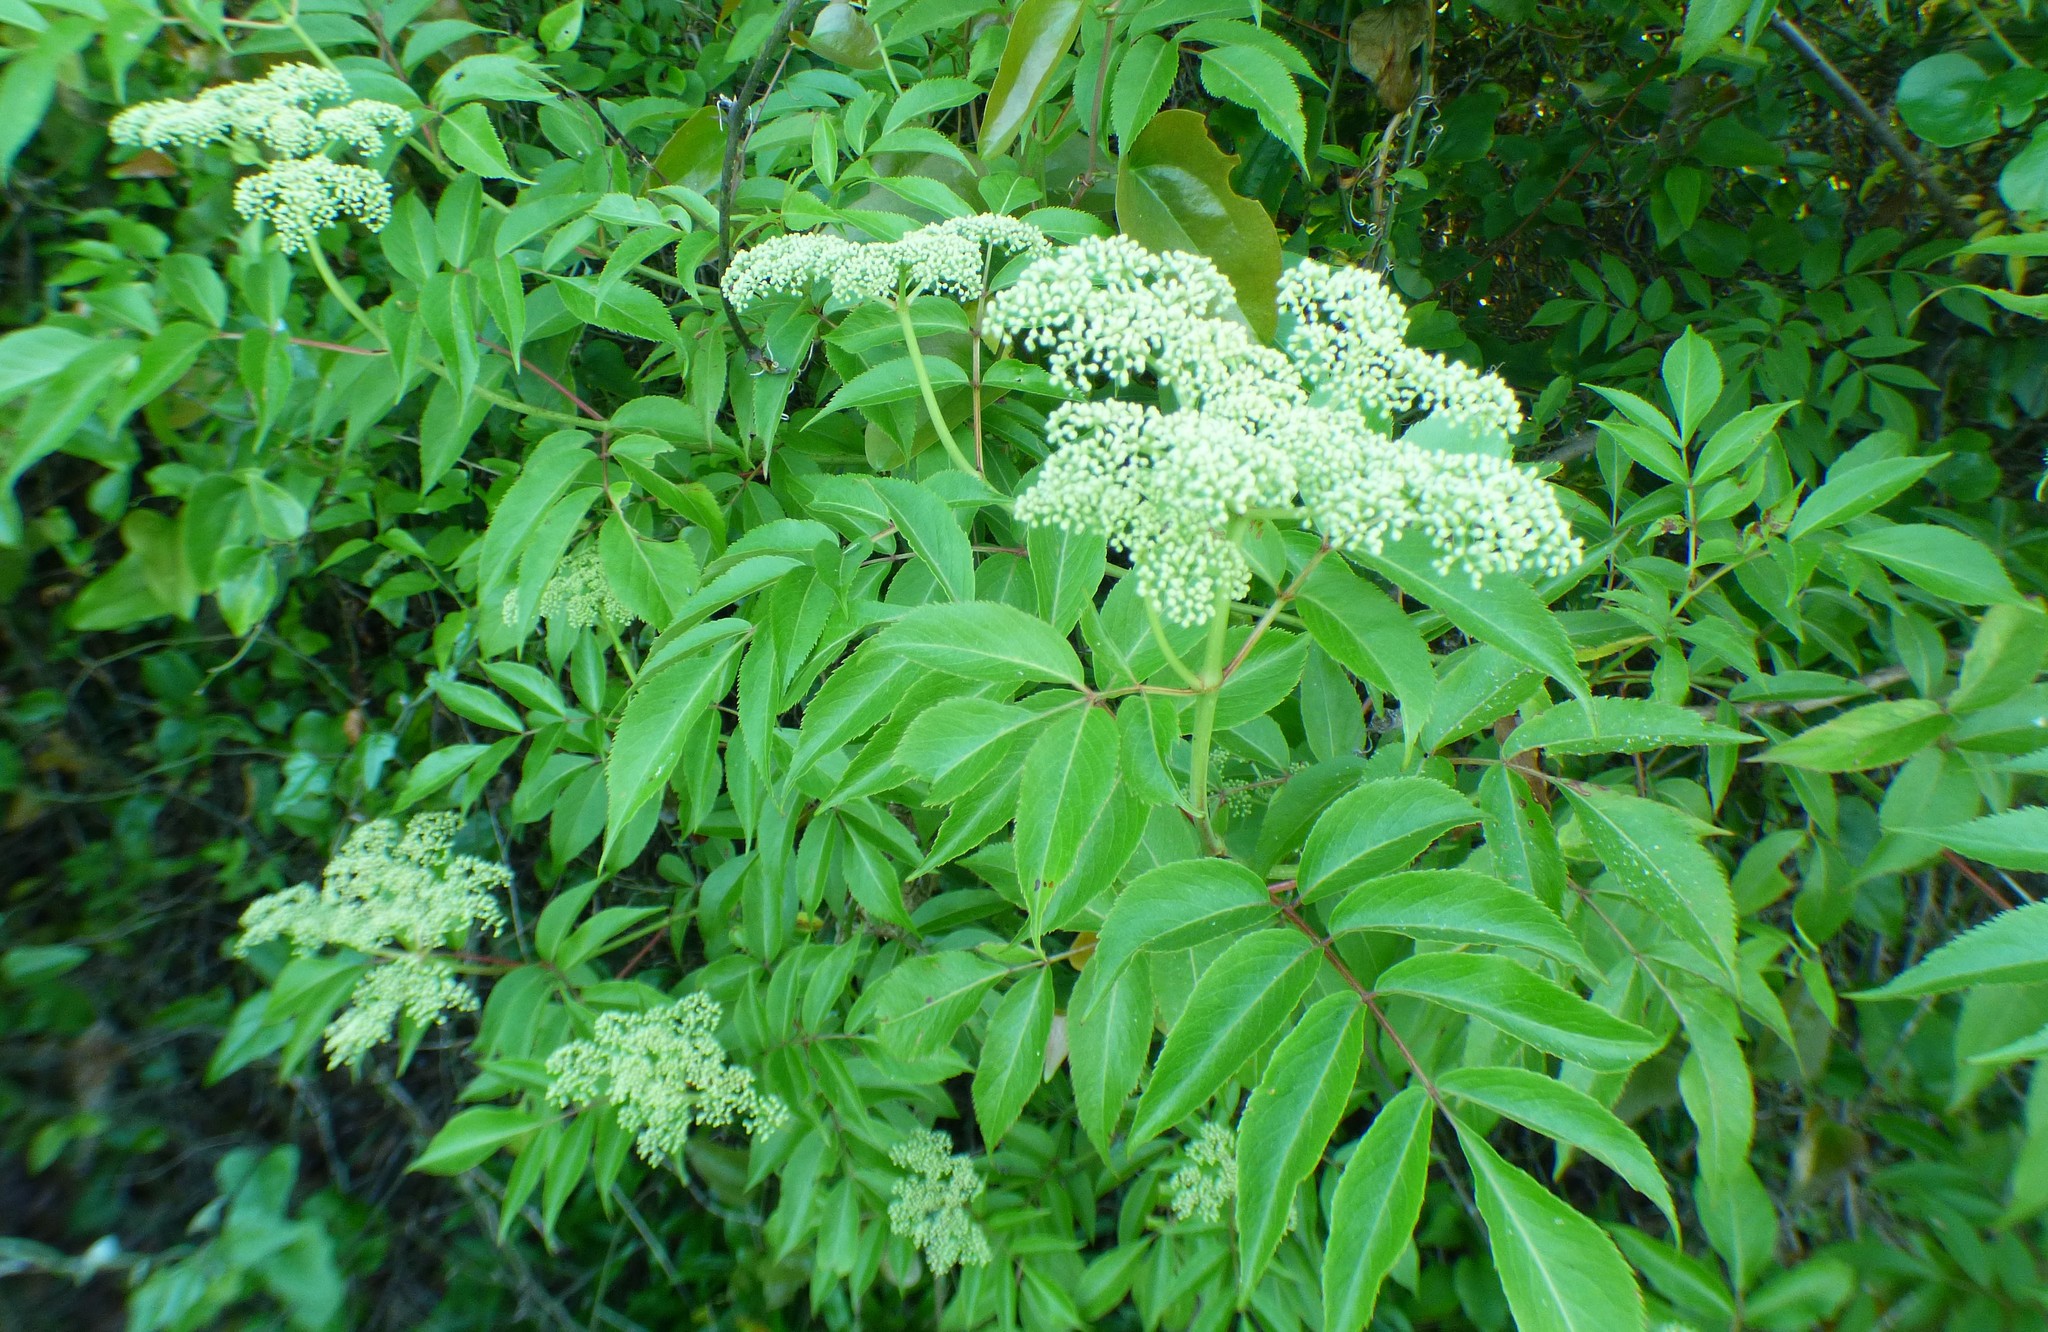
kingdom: Plantae
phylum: Tracheophyta
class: Magnoliopsida
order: Dipsacales
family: Viburnaceae
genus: Sambucus
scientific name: Sambucus canadensis
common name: American elder
